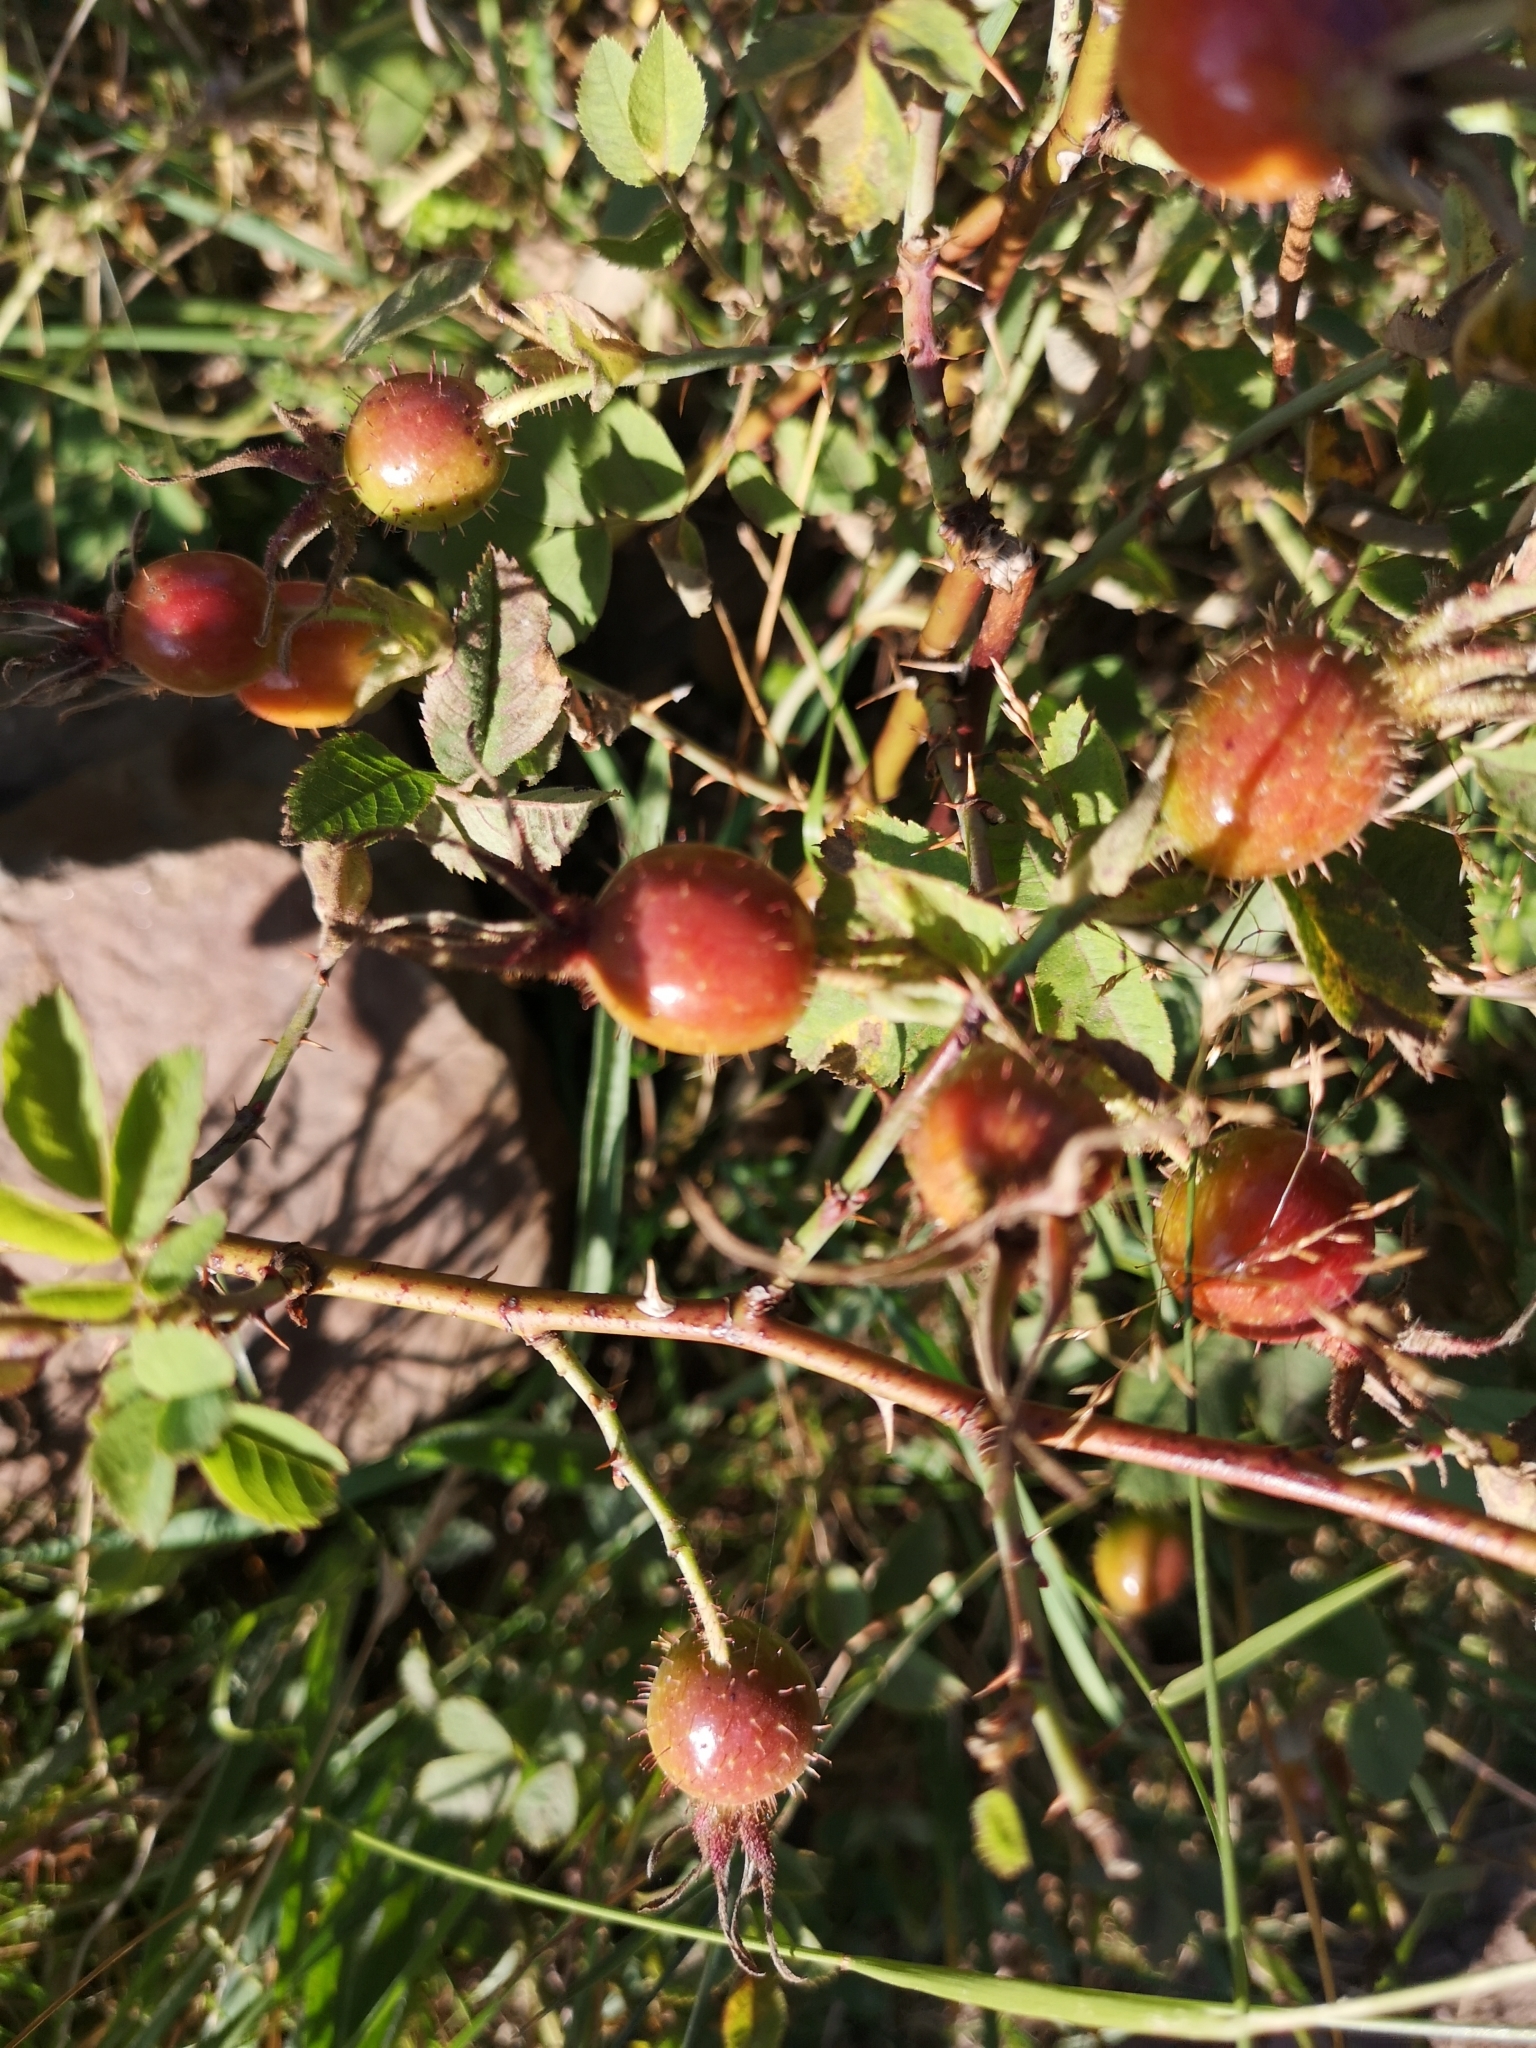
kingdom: Plantae
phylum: Tracheophyta
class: Magnoliopsida
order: Rosales
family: Rosaceae
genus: Rosa
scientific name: Rosa villosa
